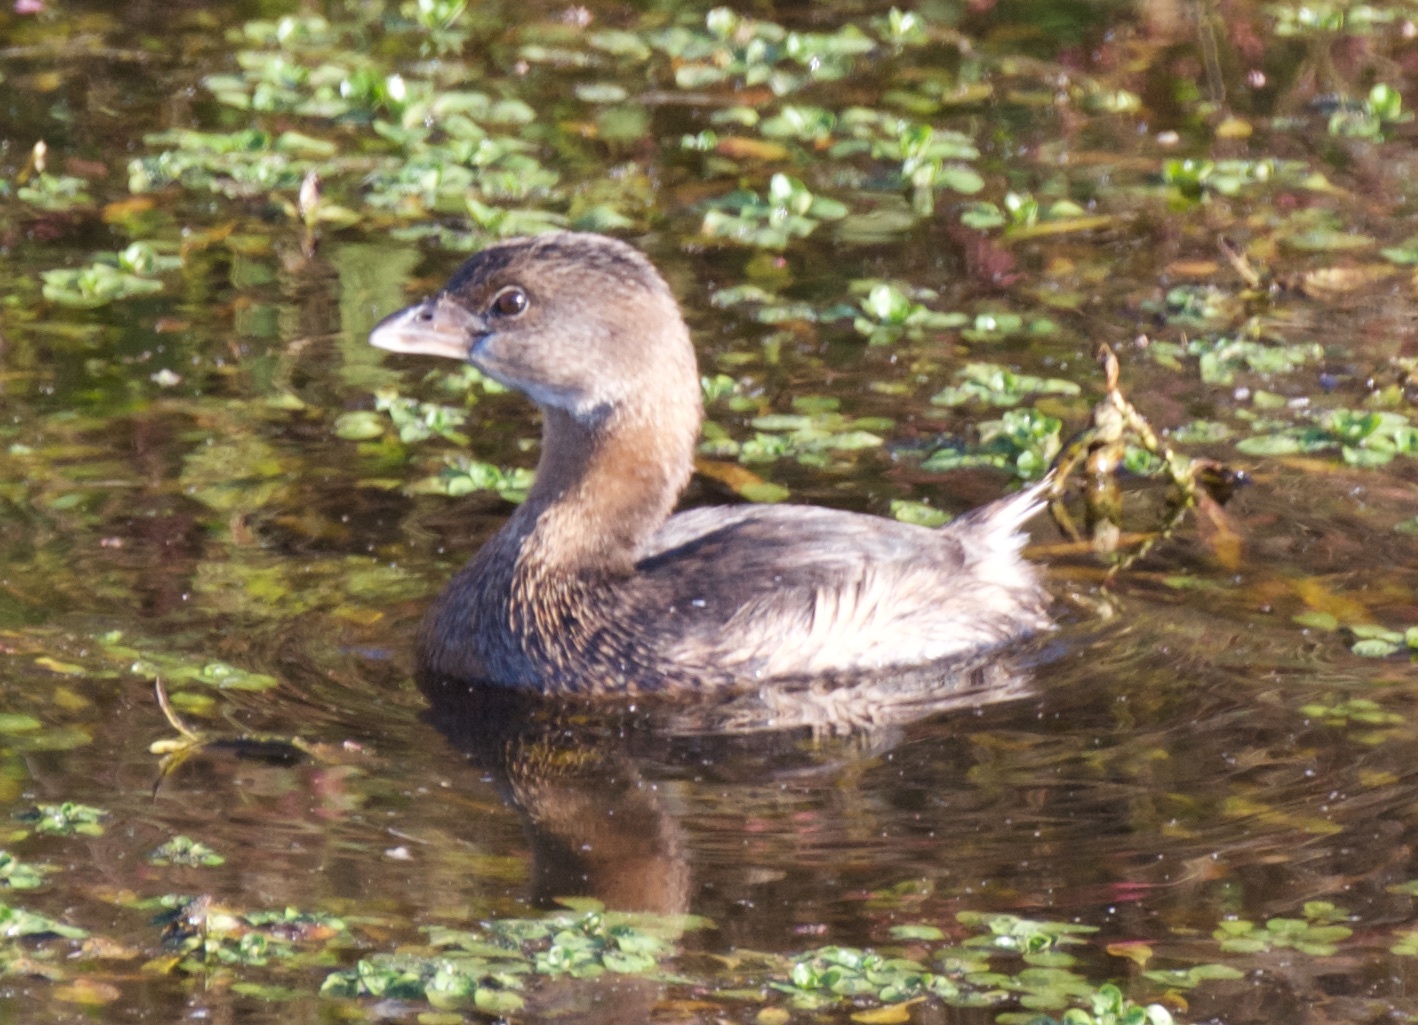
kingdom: Animalia
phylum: Chordata
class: Aves
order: Podicipediformes
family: Podicipedidae
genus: Podilymbus
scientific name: Podilymbus podiceps
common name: Pied-billed grebe
